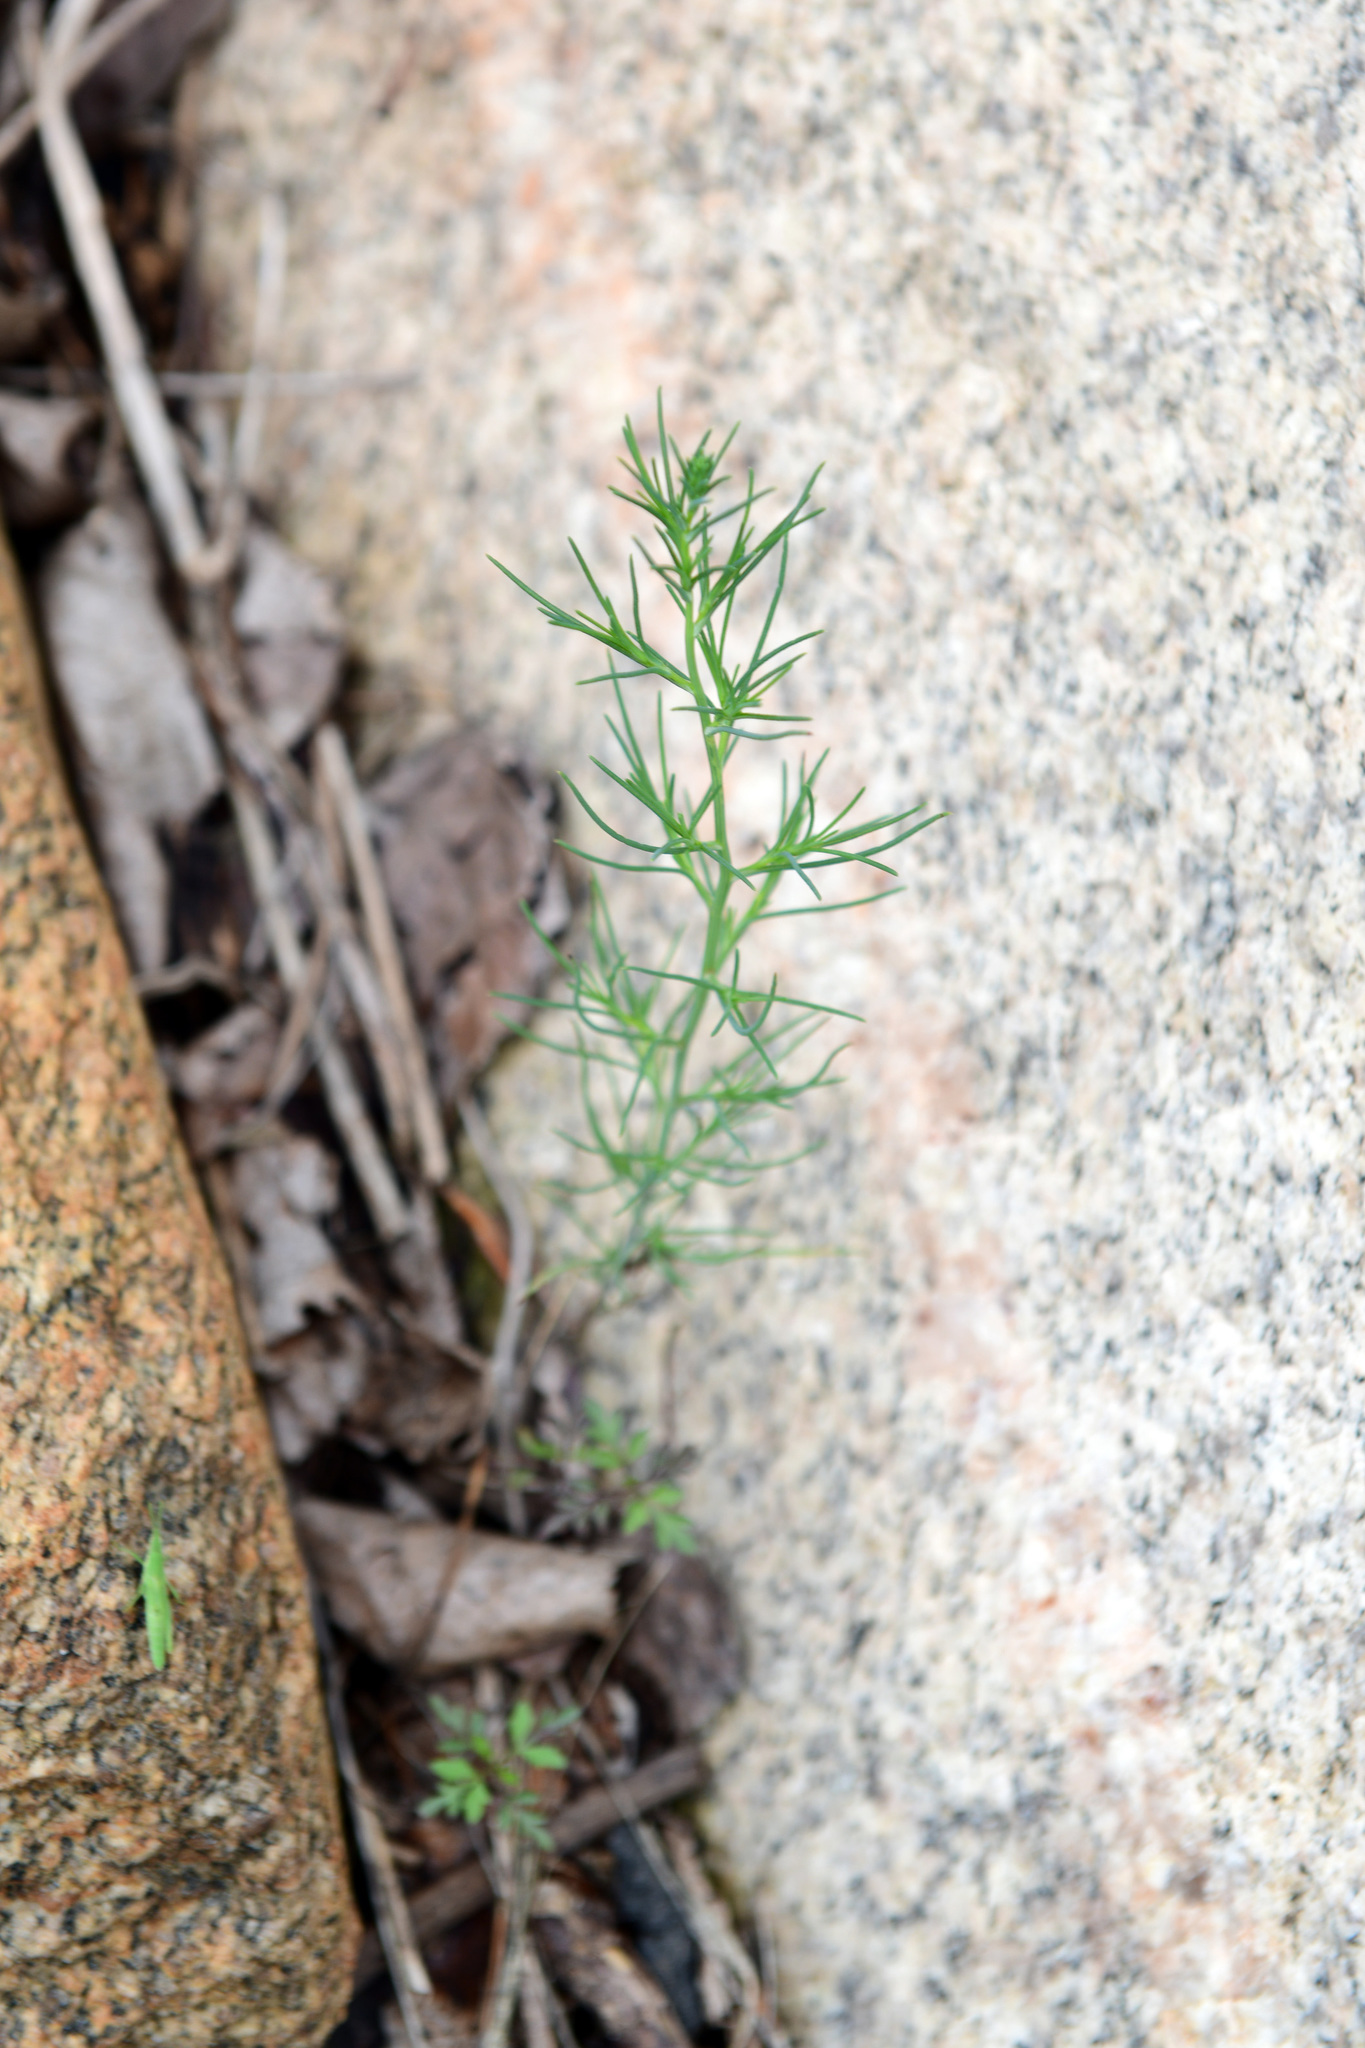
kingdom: Plantae
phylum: Tracheophyta
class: Magnoliopsida
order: Caryophyllales
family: Amaranthaceae
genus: Salsola
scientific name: Salsola collina
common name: Tumbleweed
